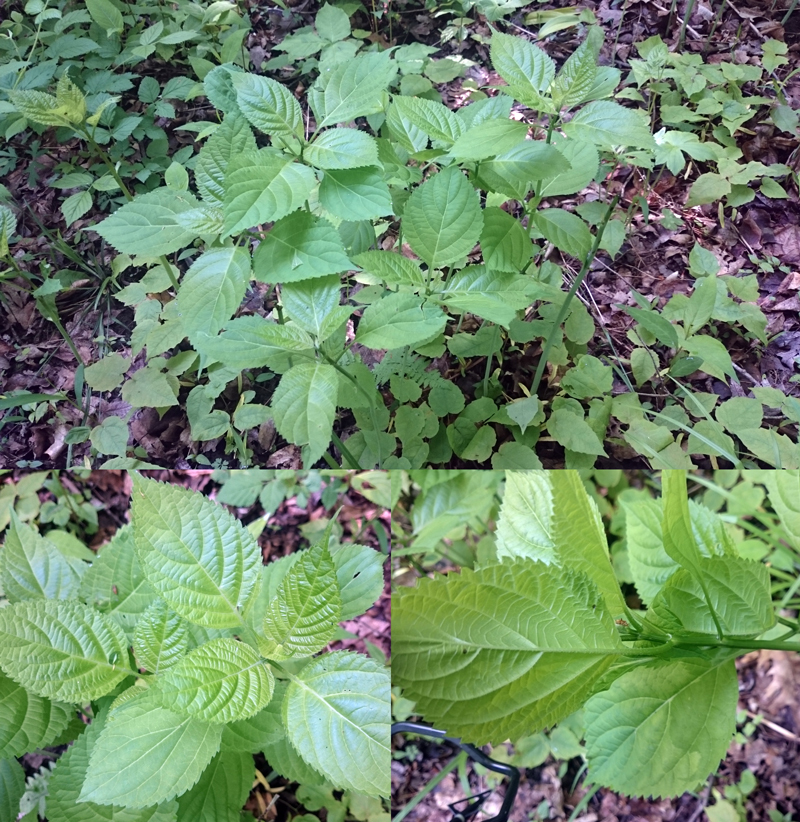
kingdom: Plantae
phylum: Tracheophyta
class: Magnoliopsida
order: Lamiales
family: Lamiaceae
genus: Collinsonia
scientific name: Collinsonia canadensis
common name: Northern horsebalm
